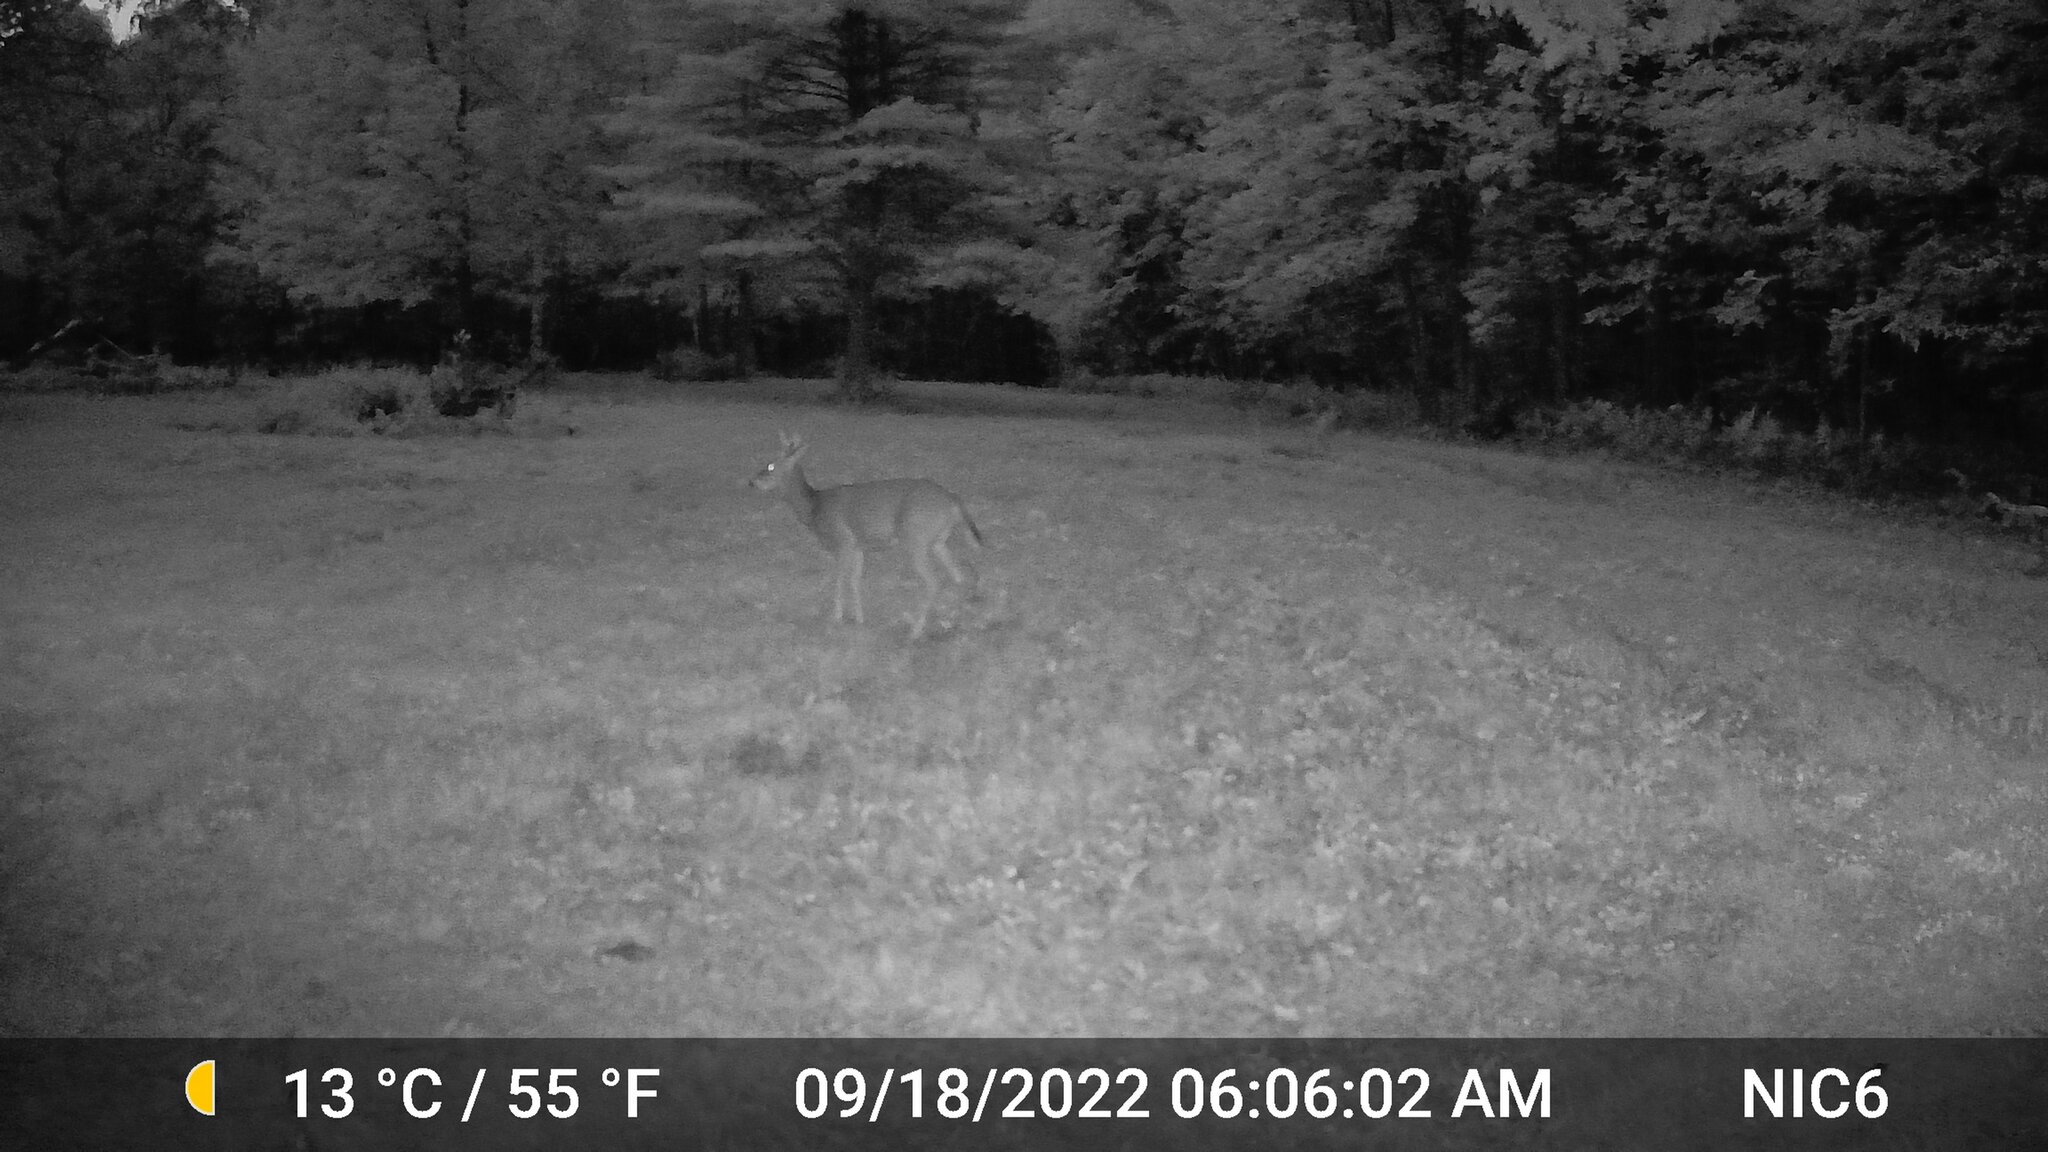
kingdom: Animalia
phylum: Chordata
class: Mammalia
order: Artiodactyla
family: Cervidae
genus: Odocoileus
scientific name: Odocoileus virginianus
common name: White-tailed deer
